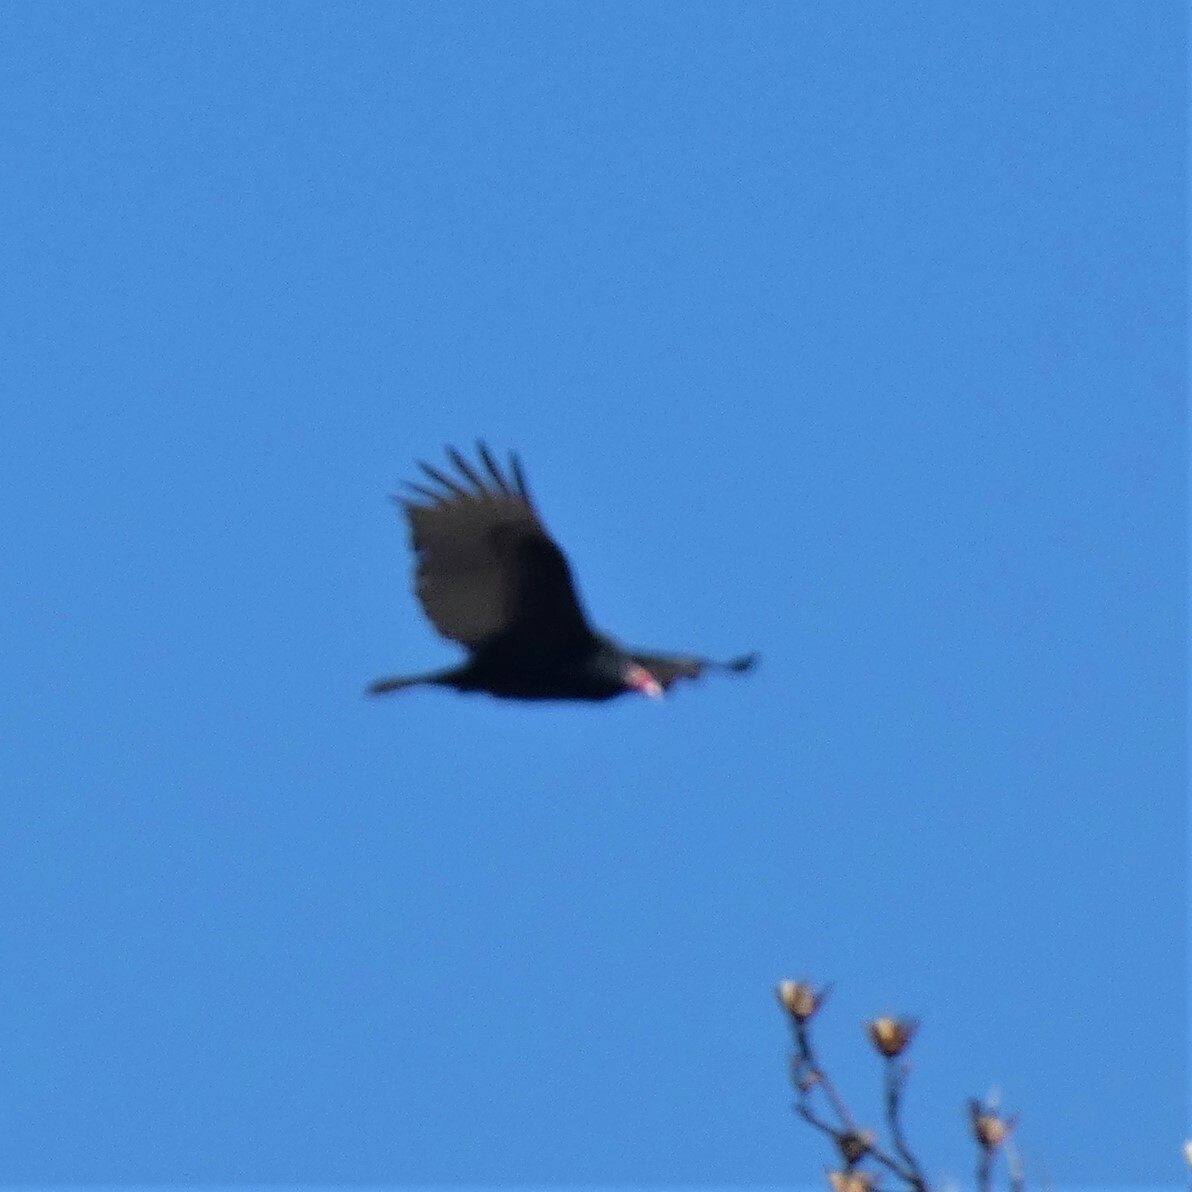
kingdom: Animalia
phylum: Chordata
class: Aves
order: Accipitriformes
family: Cathartidae
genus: Cathartes
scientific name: Cathartes aura
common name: Turkey vulture
